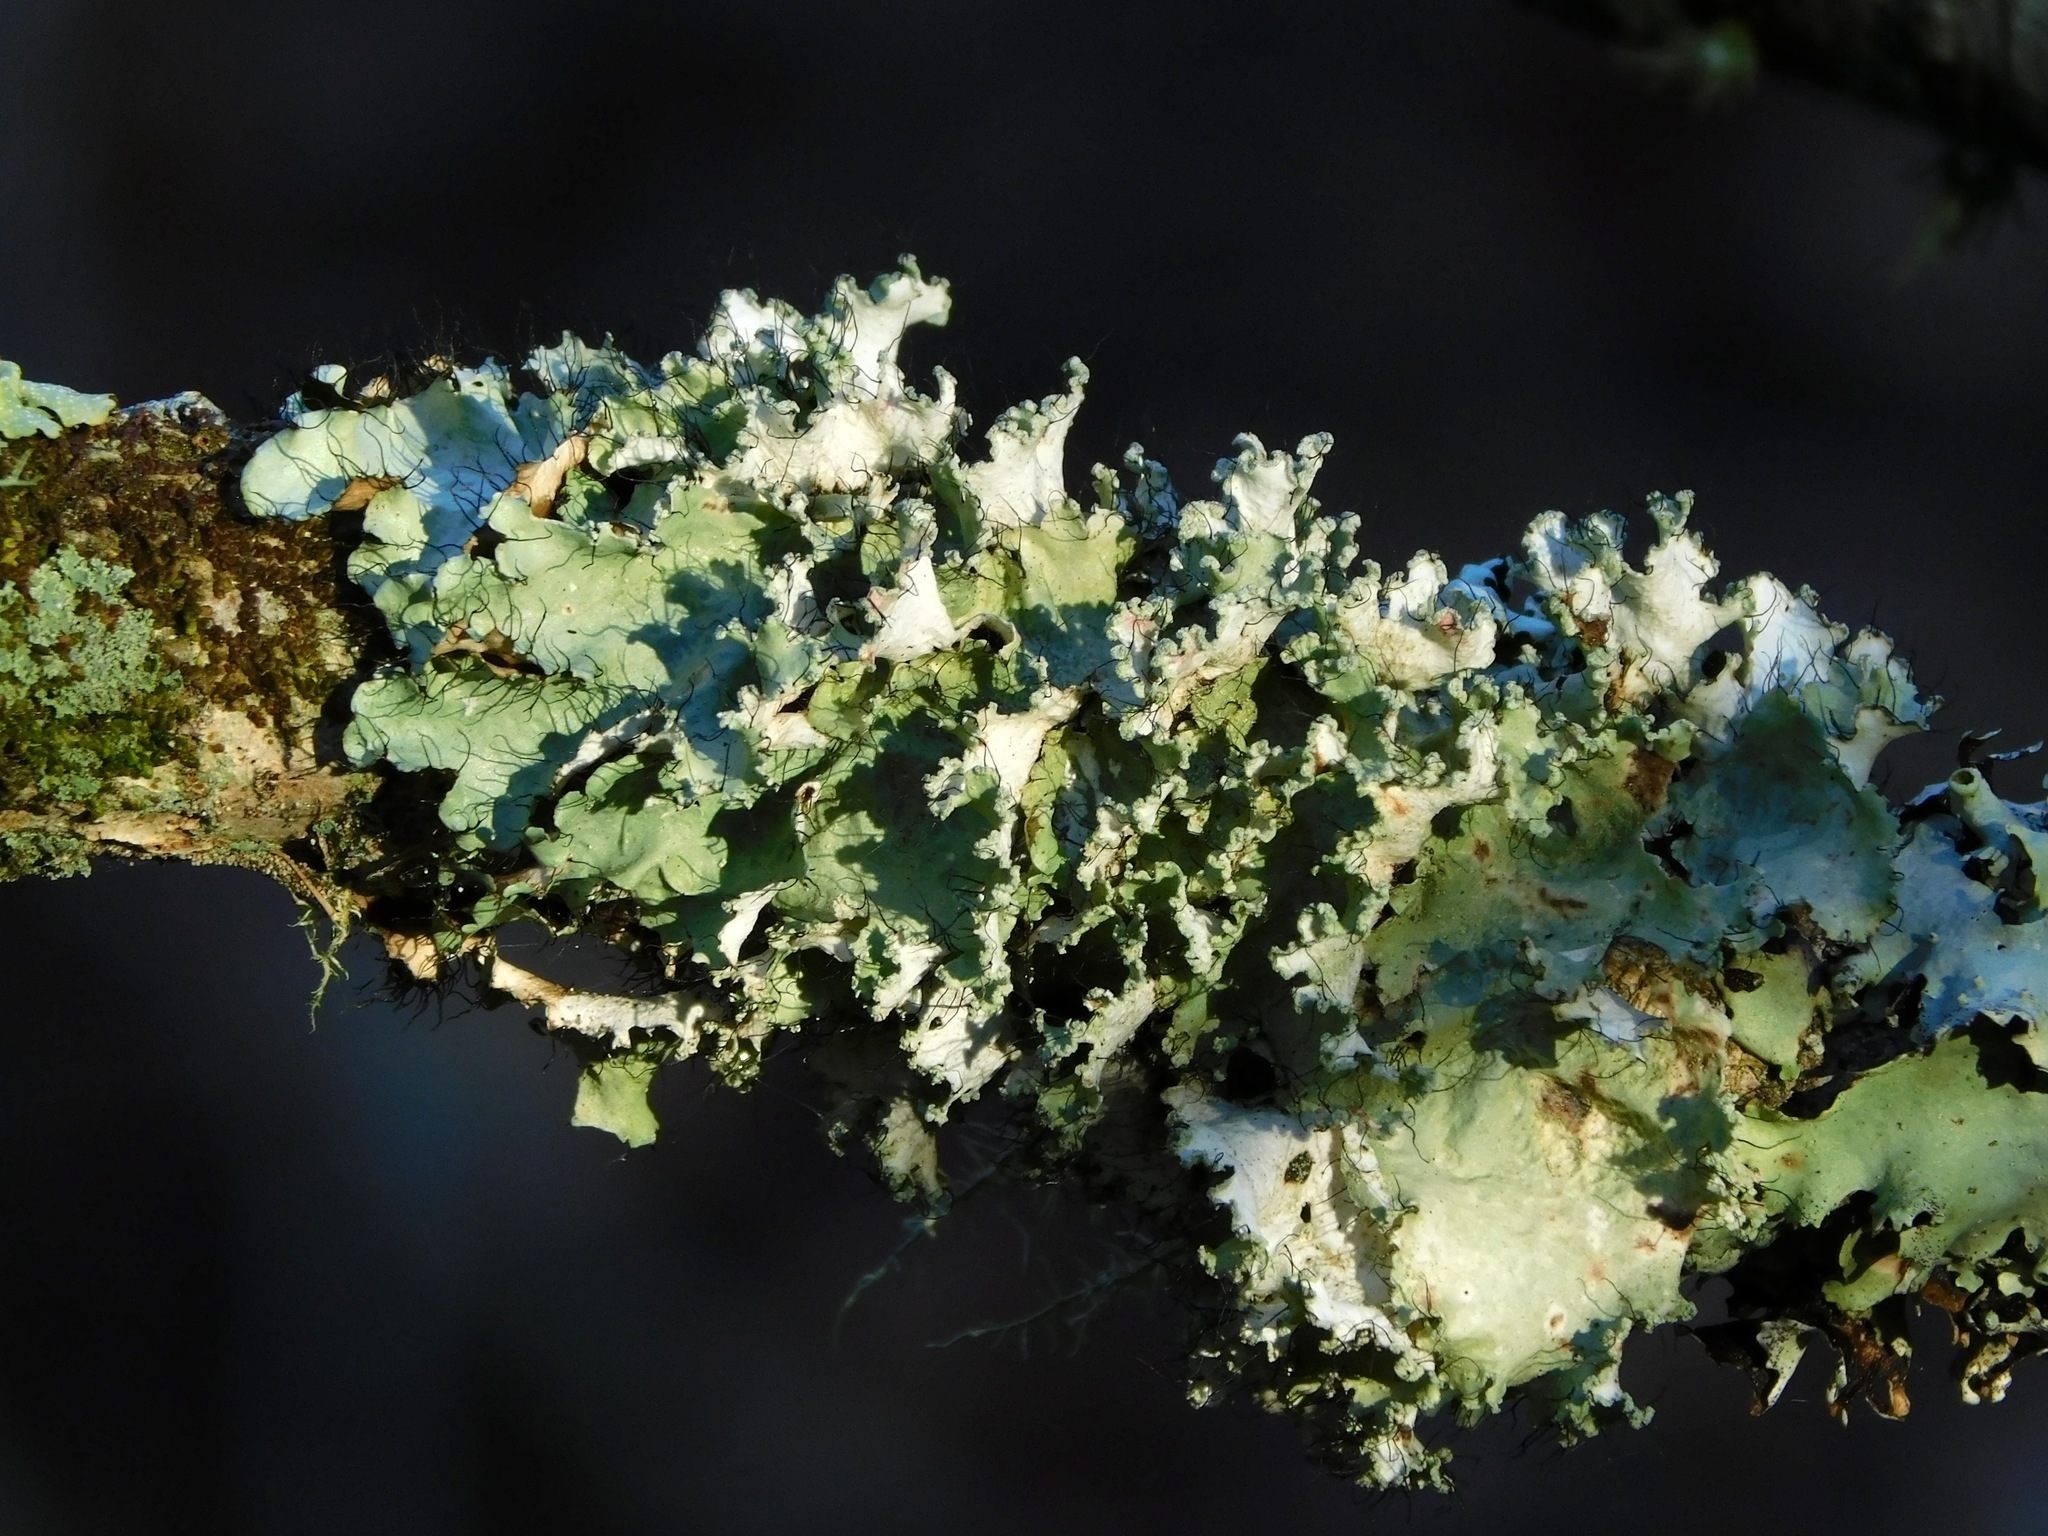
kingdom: Fungi
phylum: Ascomycota
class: Lecanoromycetes
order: Lecanorales
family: Parmeliaceae
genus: Parmotrema
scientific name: Parmotrema hypotropum
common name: Powdered ruffle lichen
